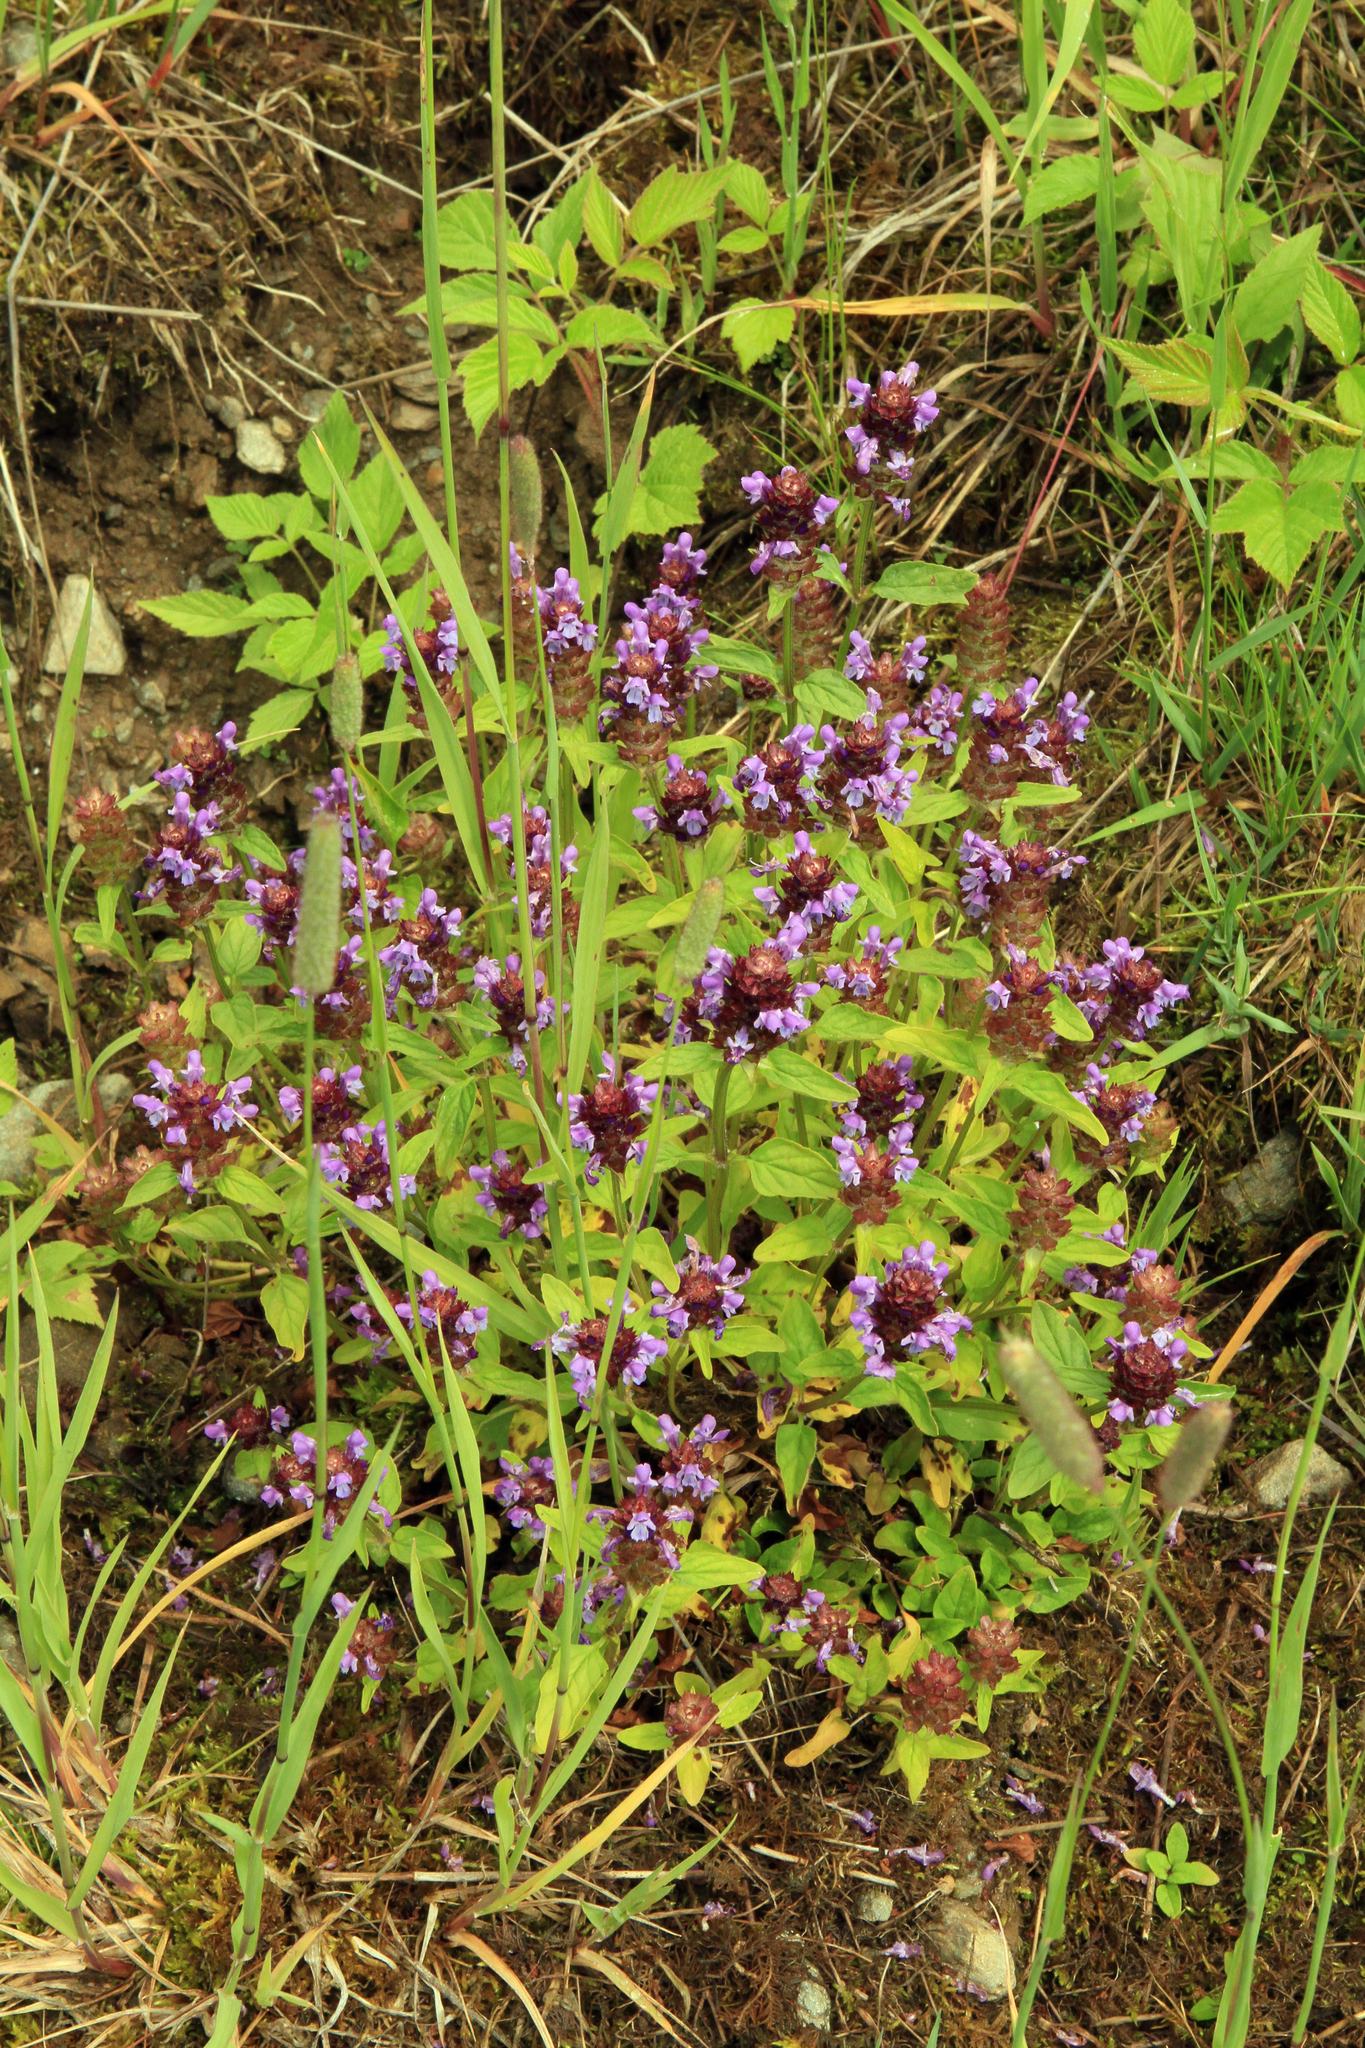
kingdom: Plantae
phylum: Tracheophyta
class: Magnoliopsida
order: Lamiales
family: Lamiaceae
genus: Prunella
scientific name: Prunella vulgaris
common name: Heal-all
